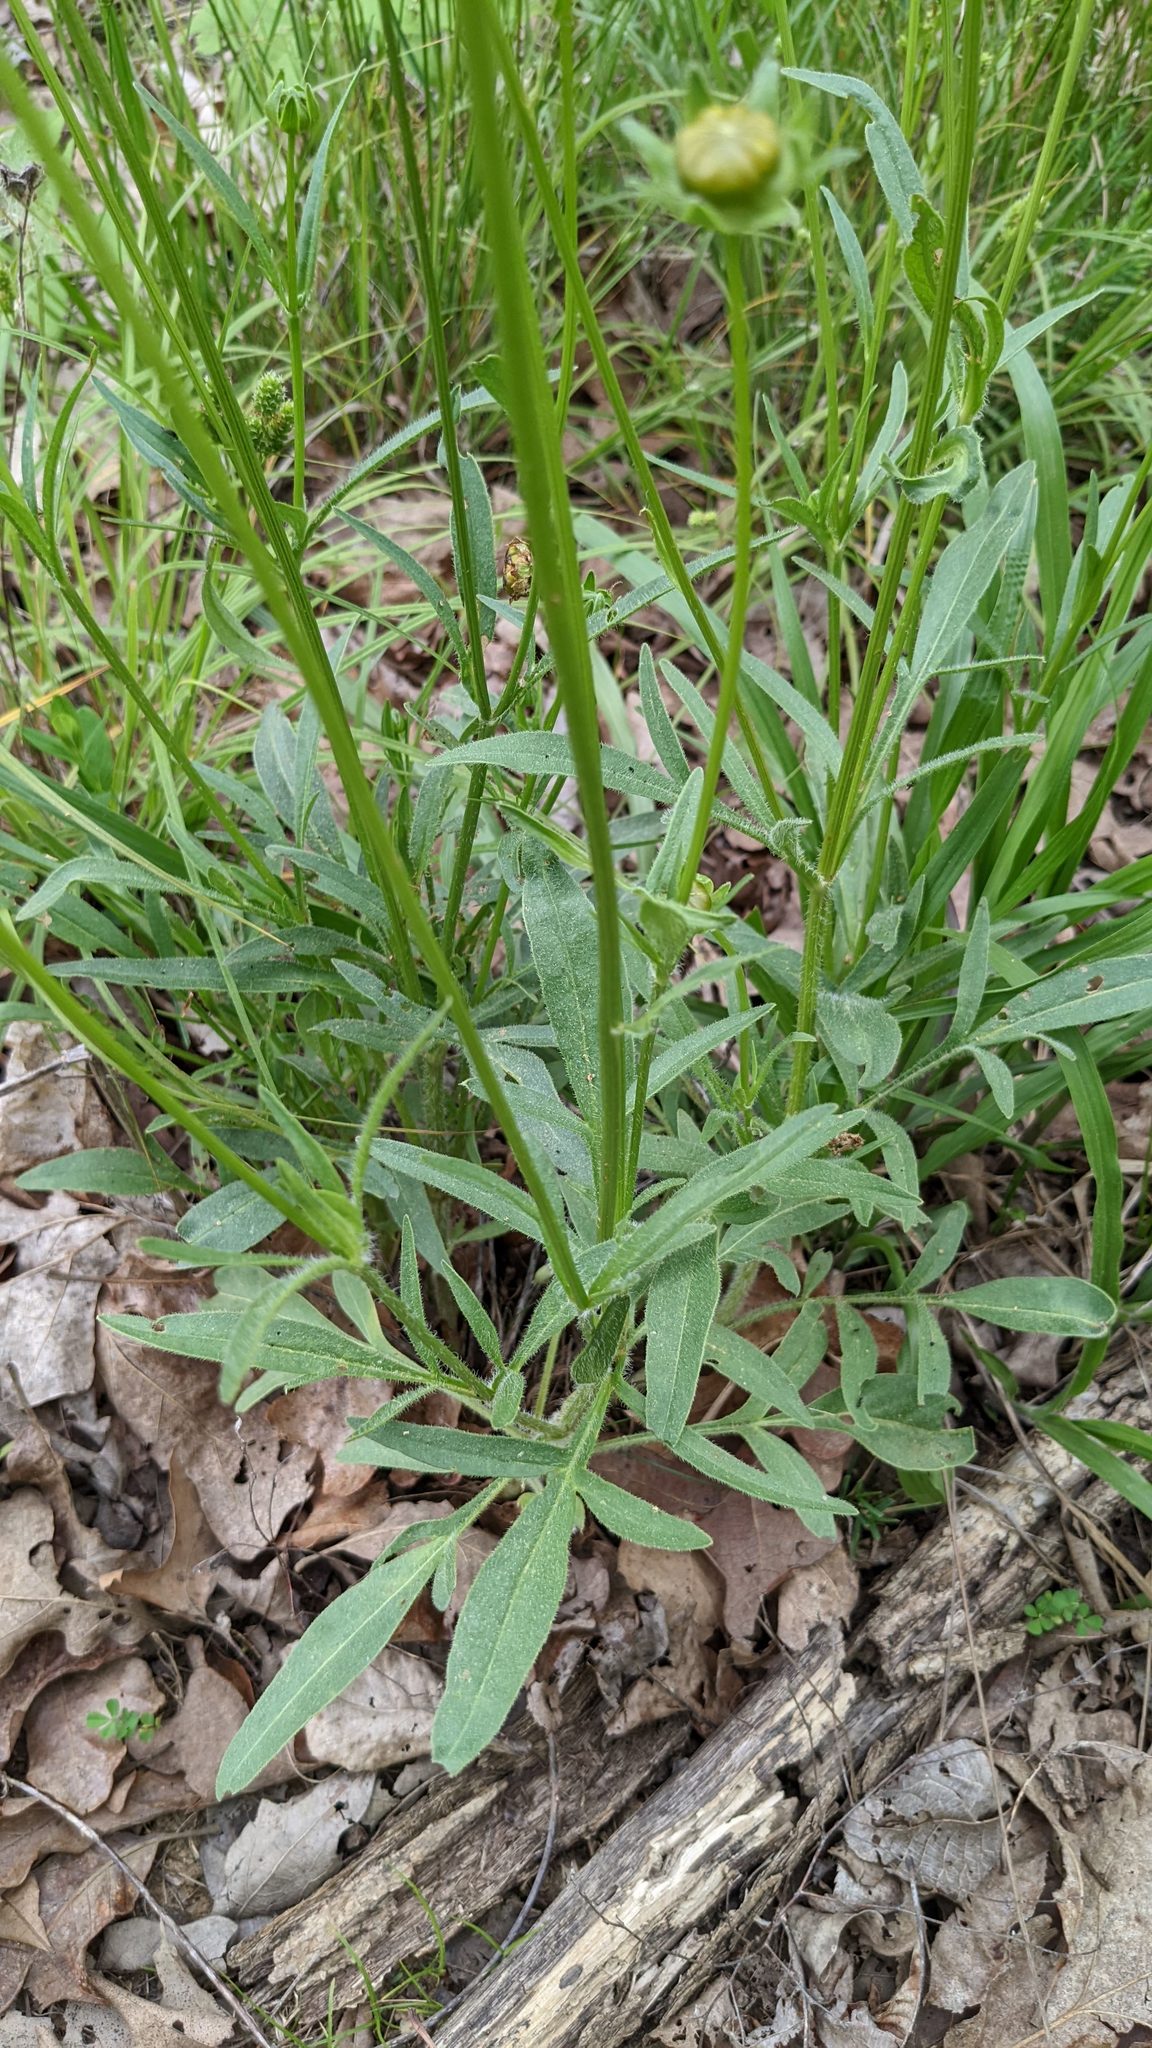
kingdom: Plantae
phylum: Tracheophyta
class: Magnoliopsida
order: Asterales
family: Asteraceae
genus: Coreopsis
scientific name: Coreopsis lanceolata
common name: Garden coreopsis
